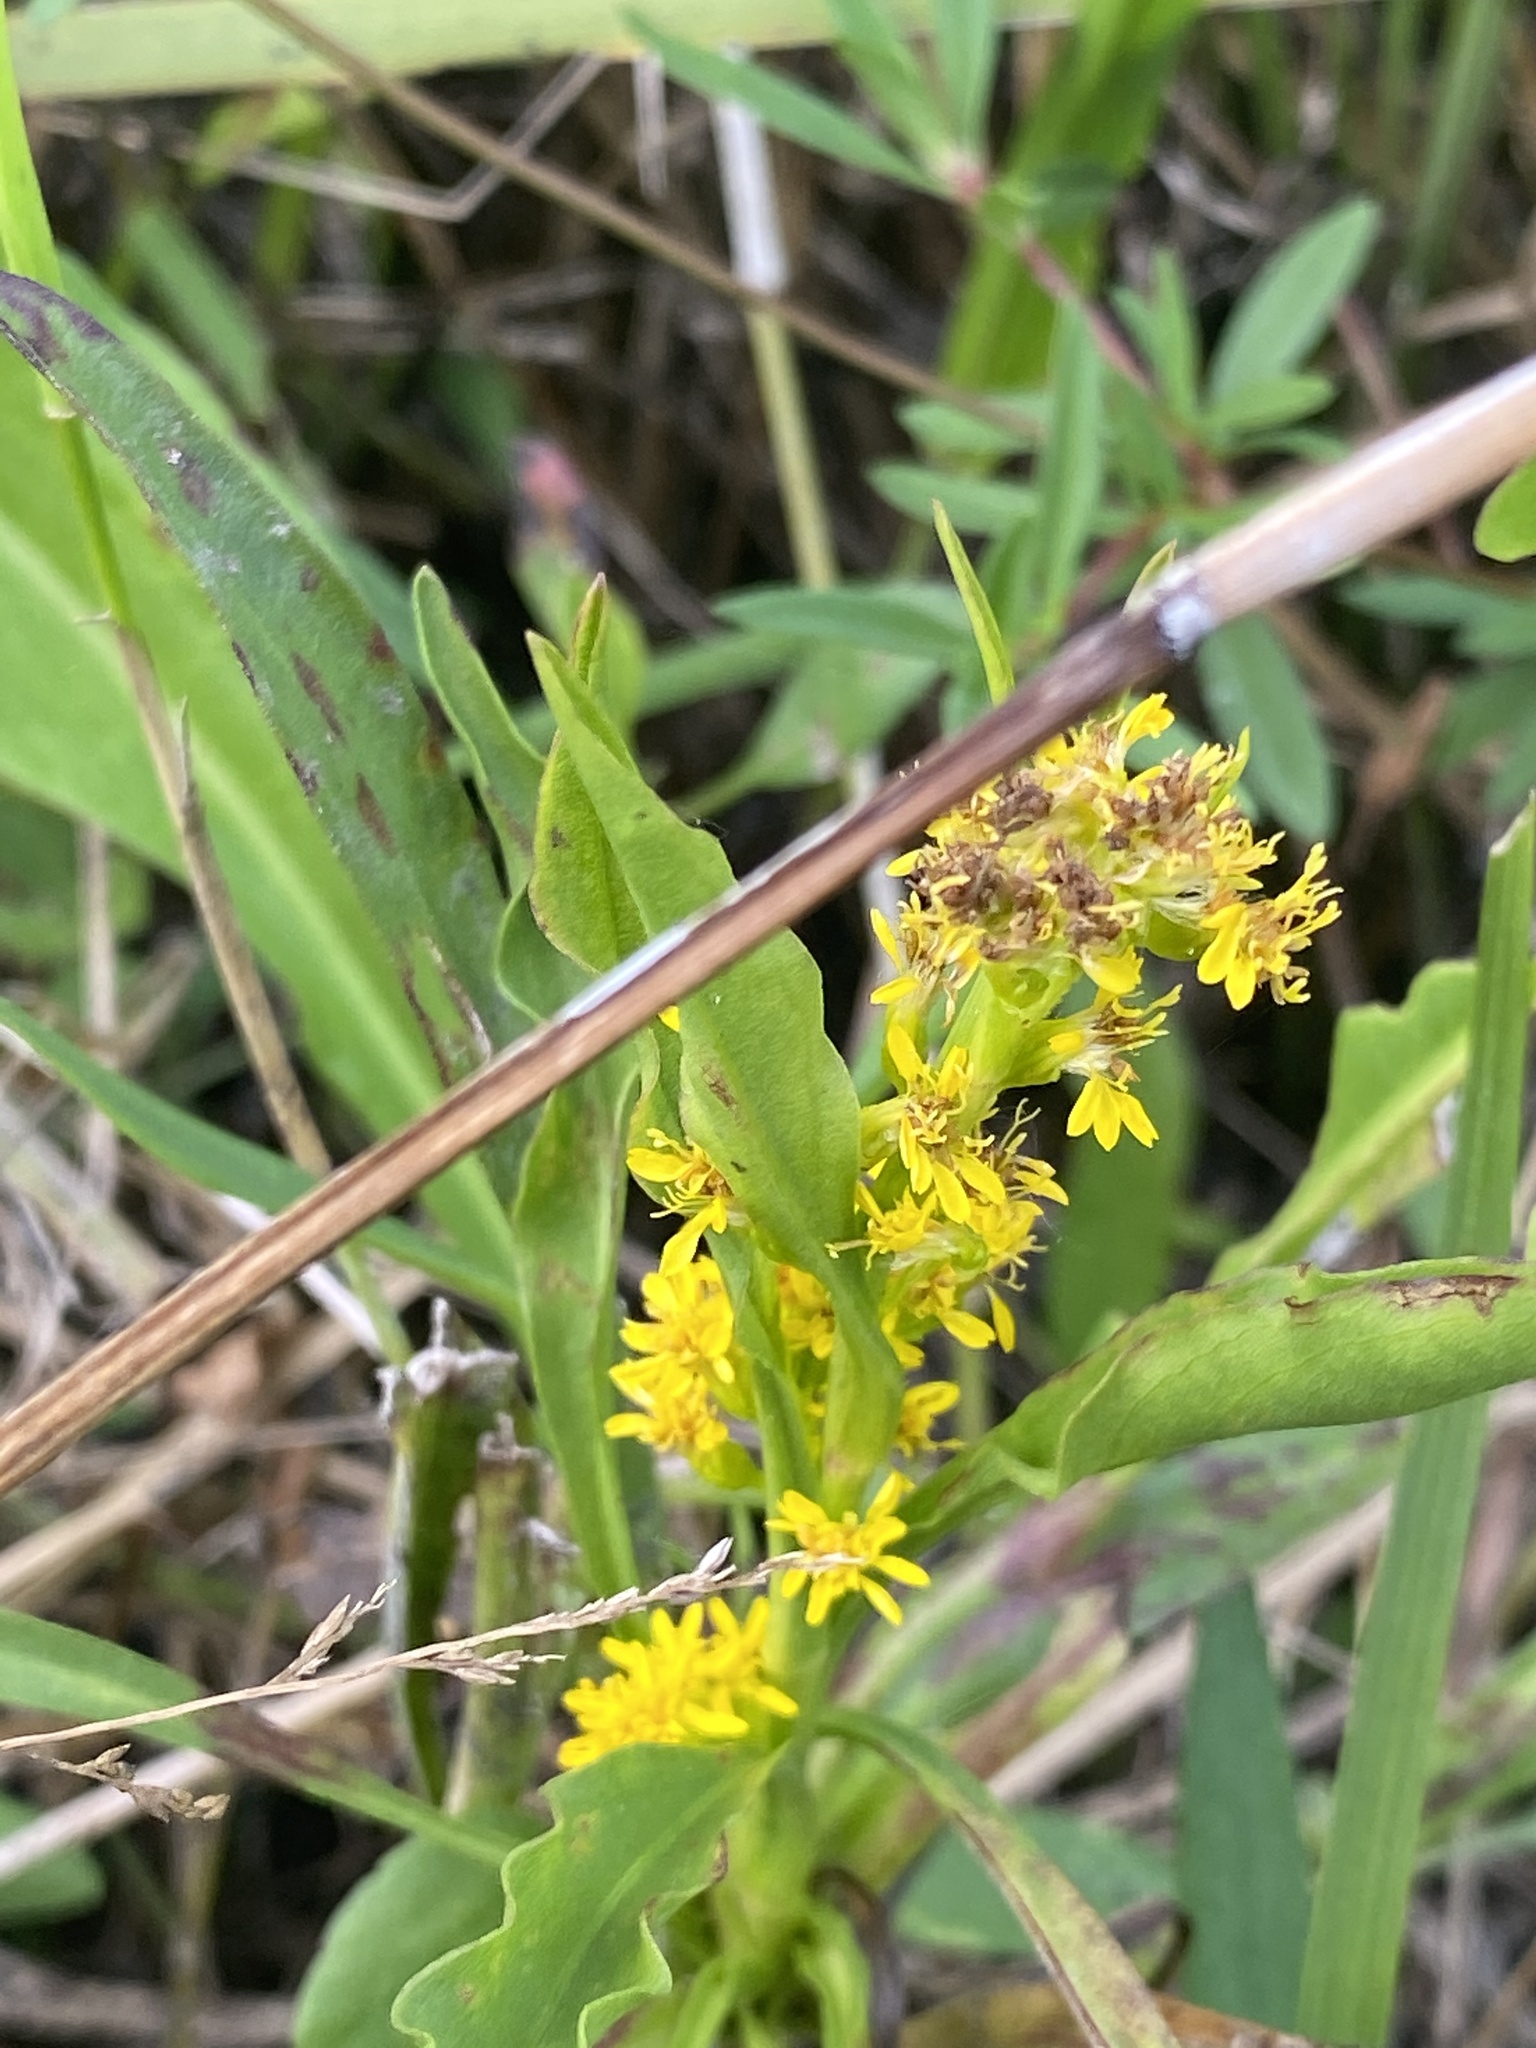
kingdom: Plantae
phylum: Tracheophyta
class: Magnoliopsida
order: Asterales
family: Asteraceae
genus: Solidago
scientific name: Solidago mexicana
